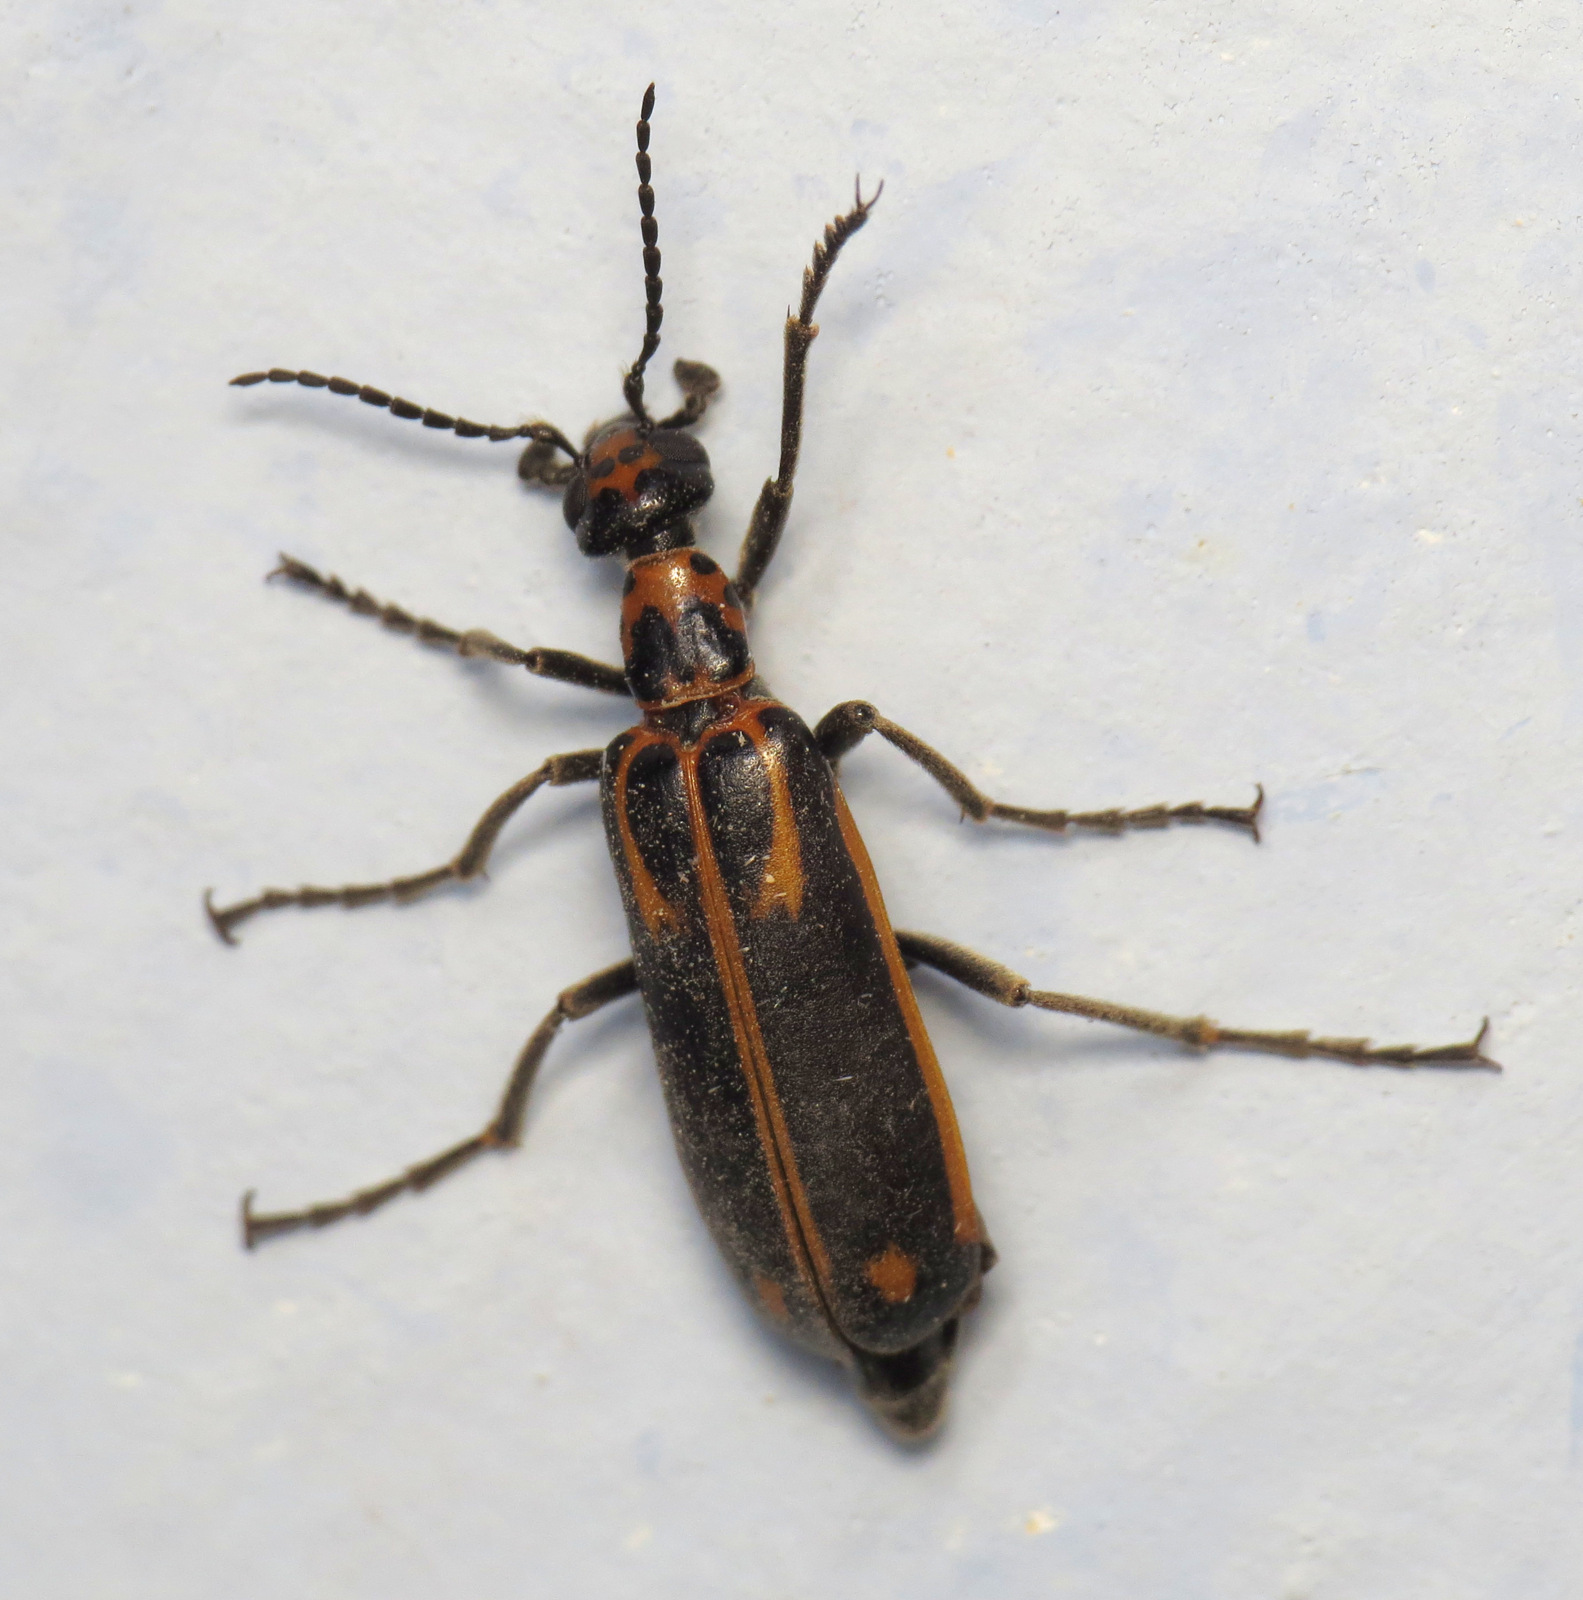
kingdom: Animalia
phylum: Arthropoda
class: Insecta
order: Coleoptera
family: Meloidae
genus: Pyrota
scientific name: Pyrota insulata
